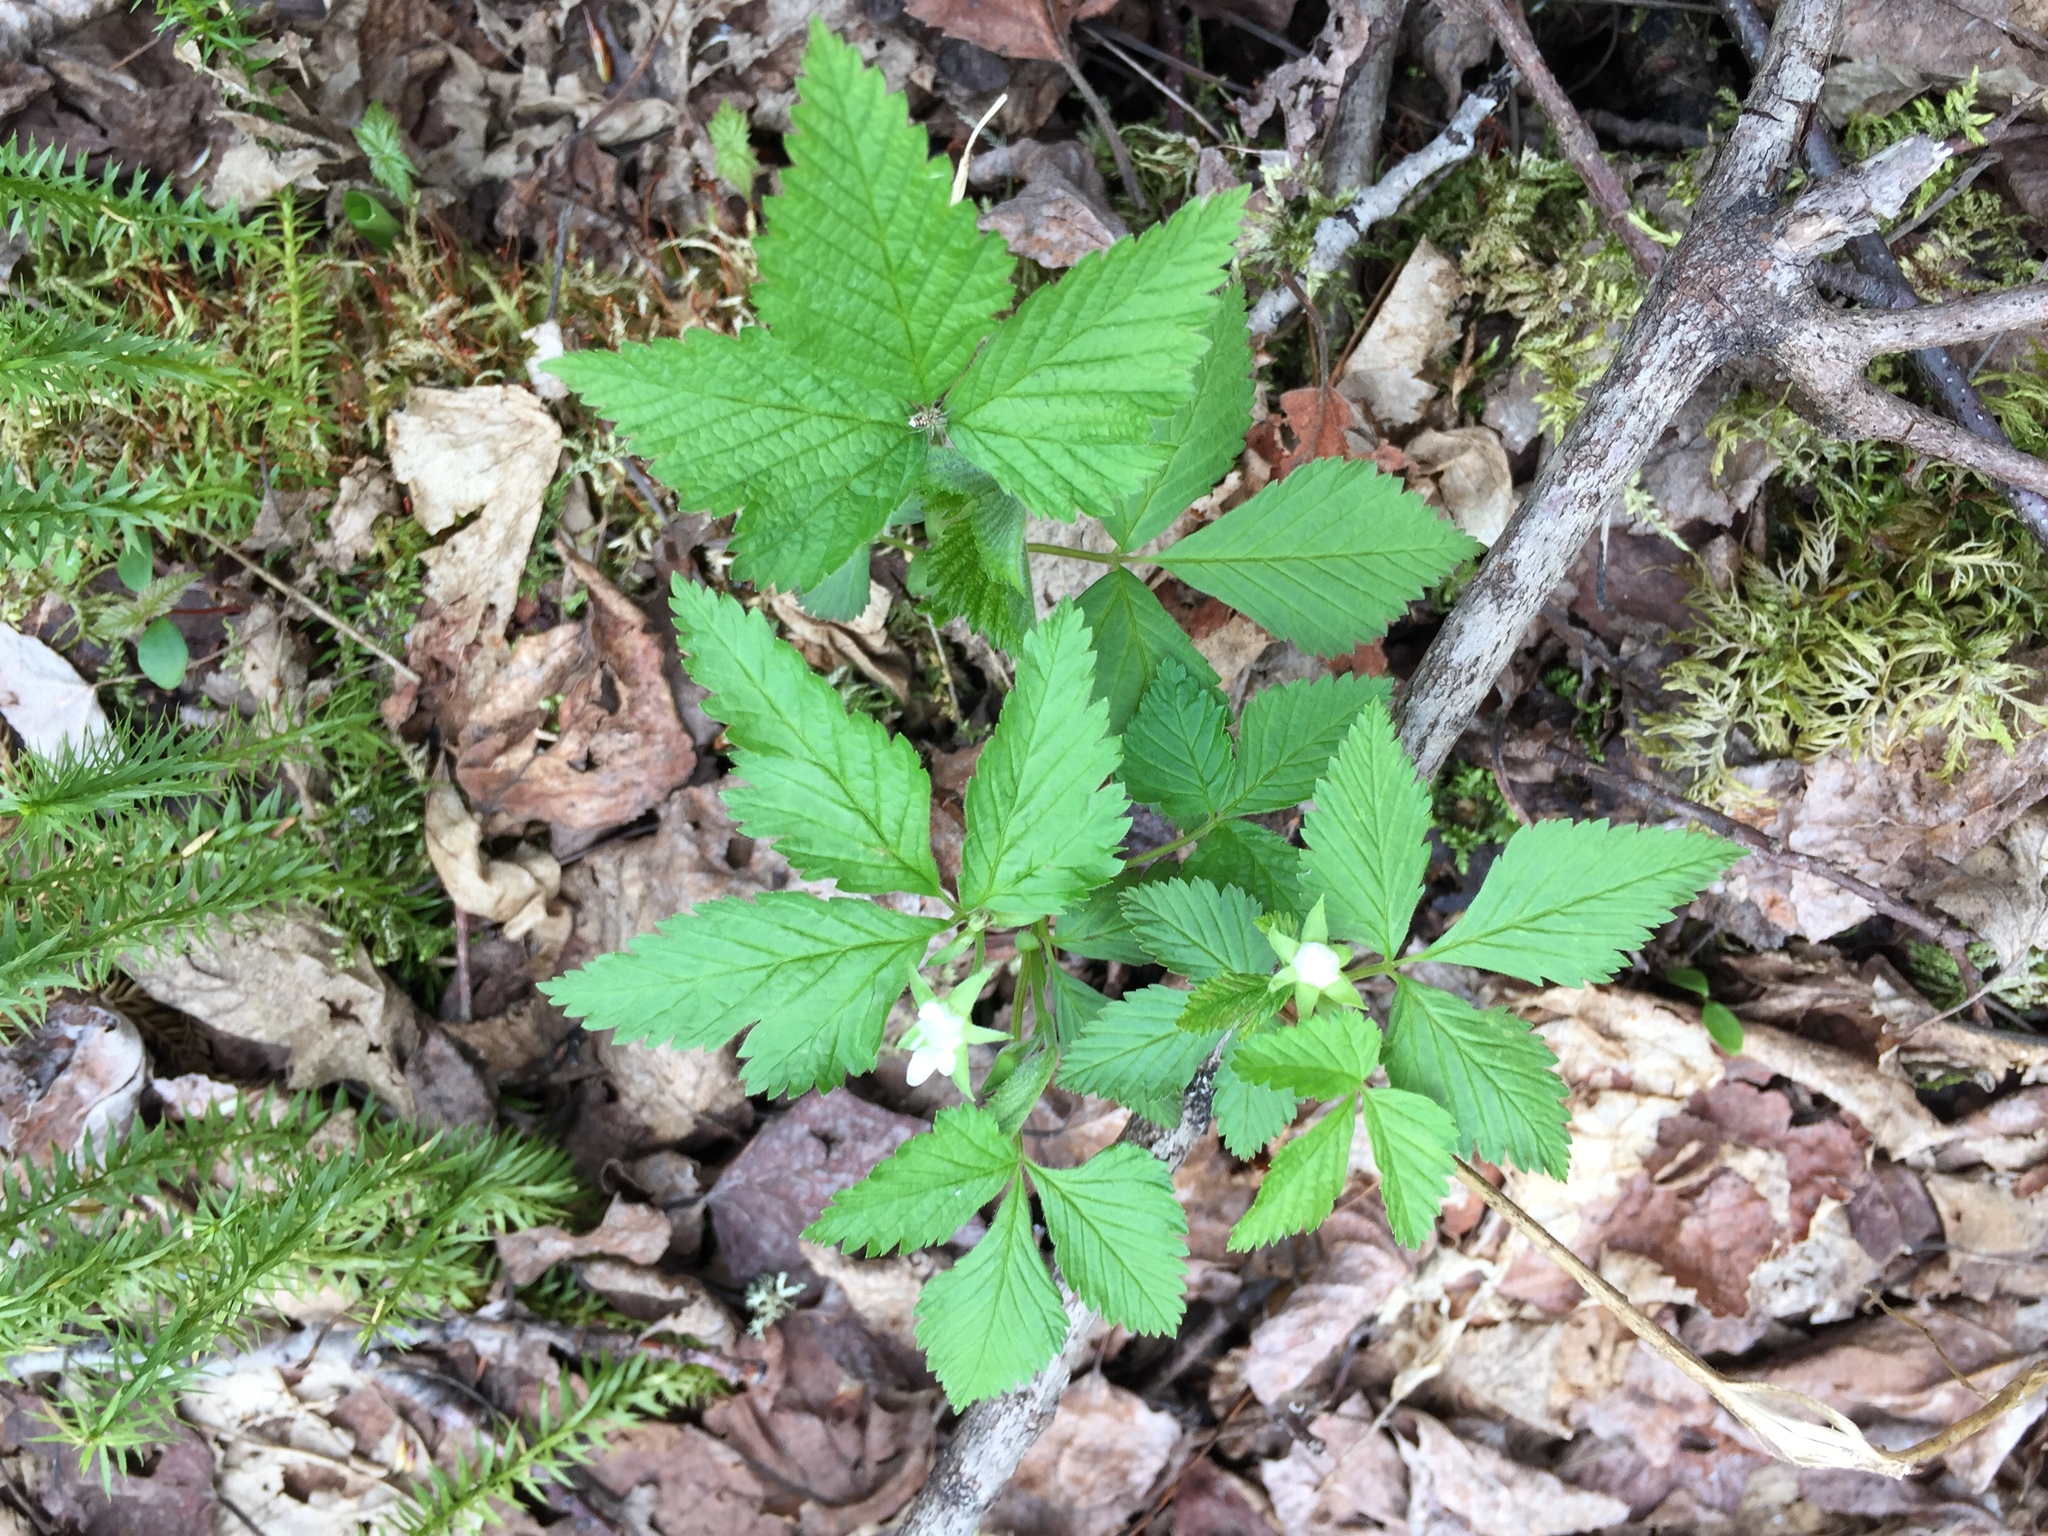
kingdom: Plantae
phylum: Tracheophyta
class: Magnoliopsida
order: Rosales
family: Rosaceae
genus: Rubus
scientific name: Rubus pubescens
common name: Dwarf raspberry
